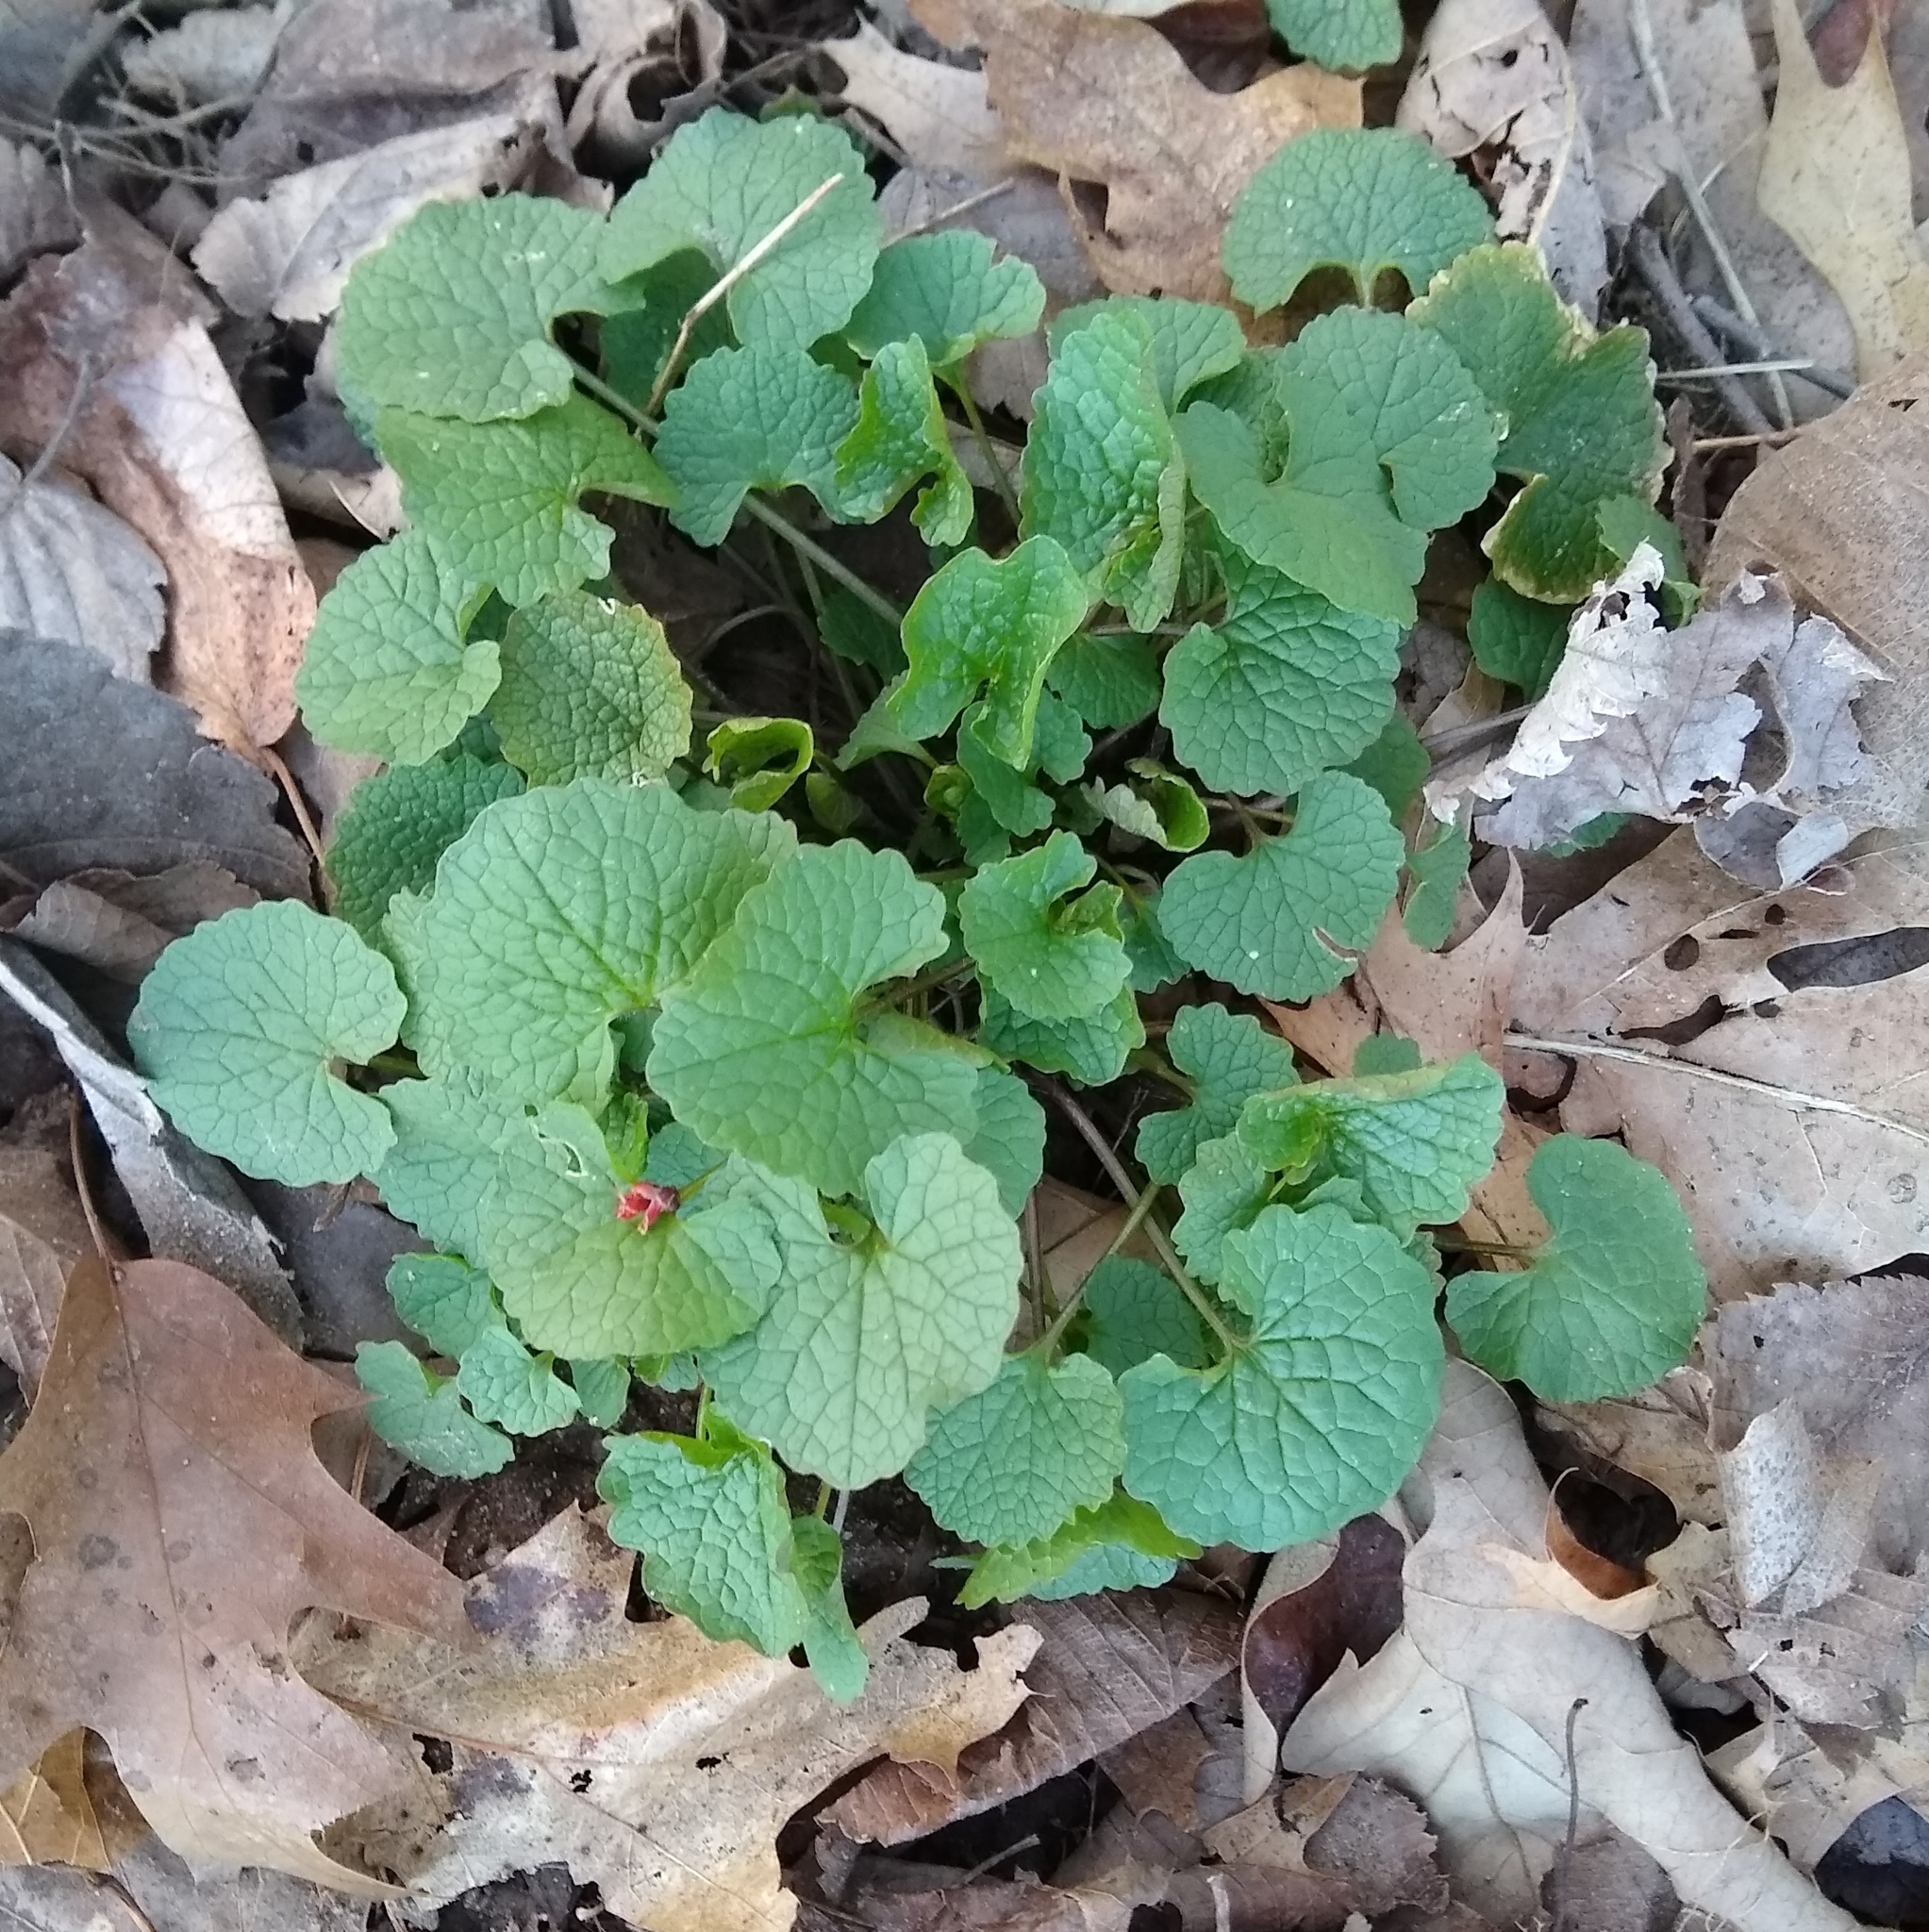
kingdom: Plantae
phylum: Tracheophyta
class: Magnoliopsida
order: Brassicales
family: Brassicaceae
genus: Alliaria
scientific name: Alliaria petiolata
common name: Garlic mustard
